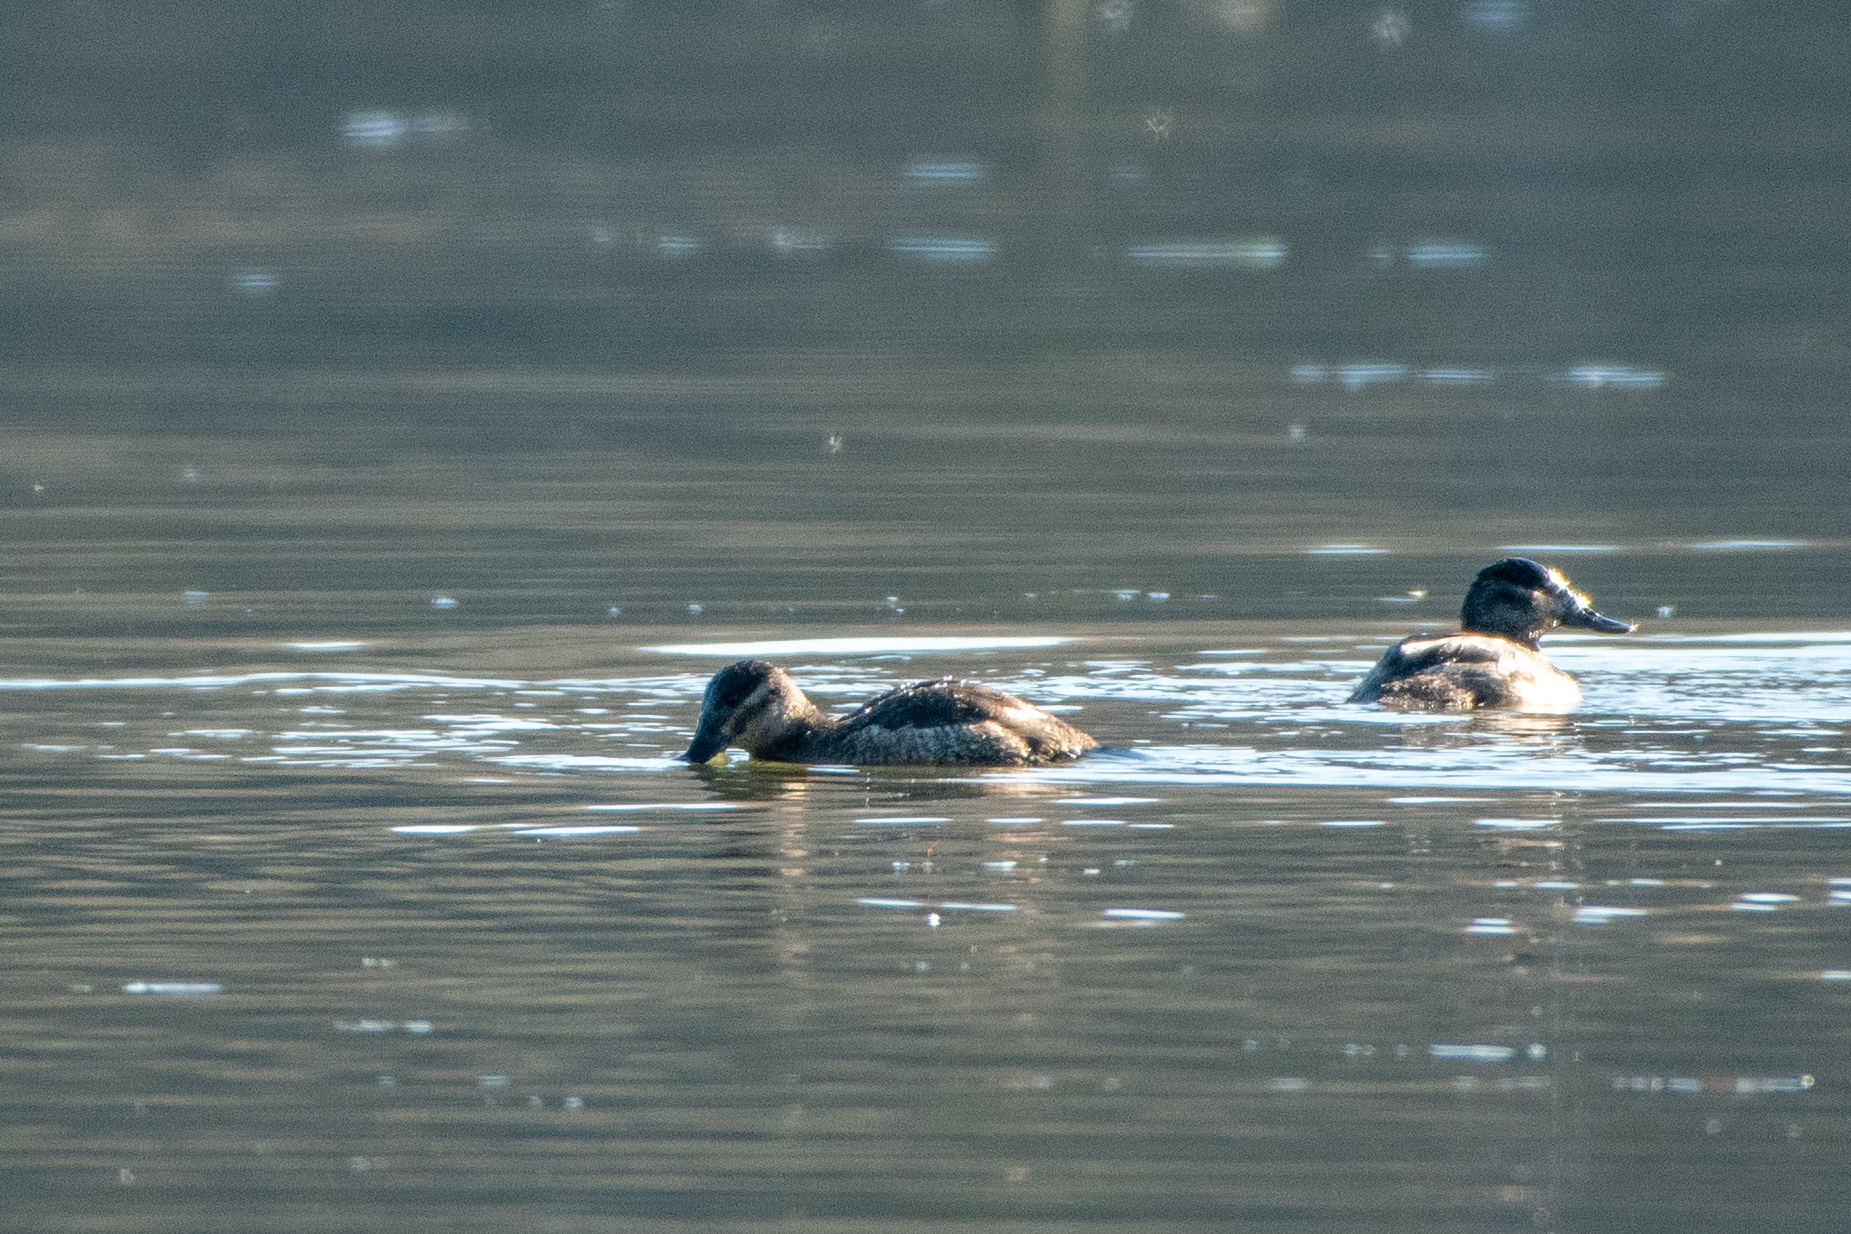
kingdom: Animalia
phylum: Chordata
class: Aves
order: Anseriformes
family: Anatidae
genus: Oxyura
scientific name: Oxyura jamaicensis
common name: Ruddy duck
